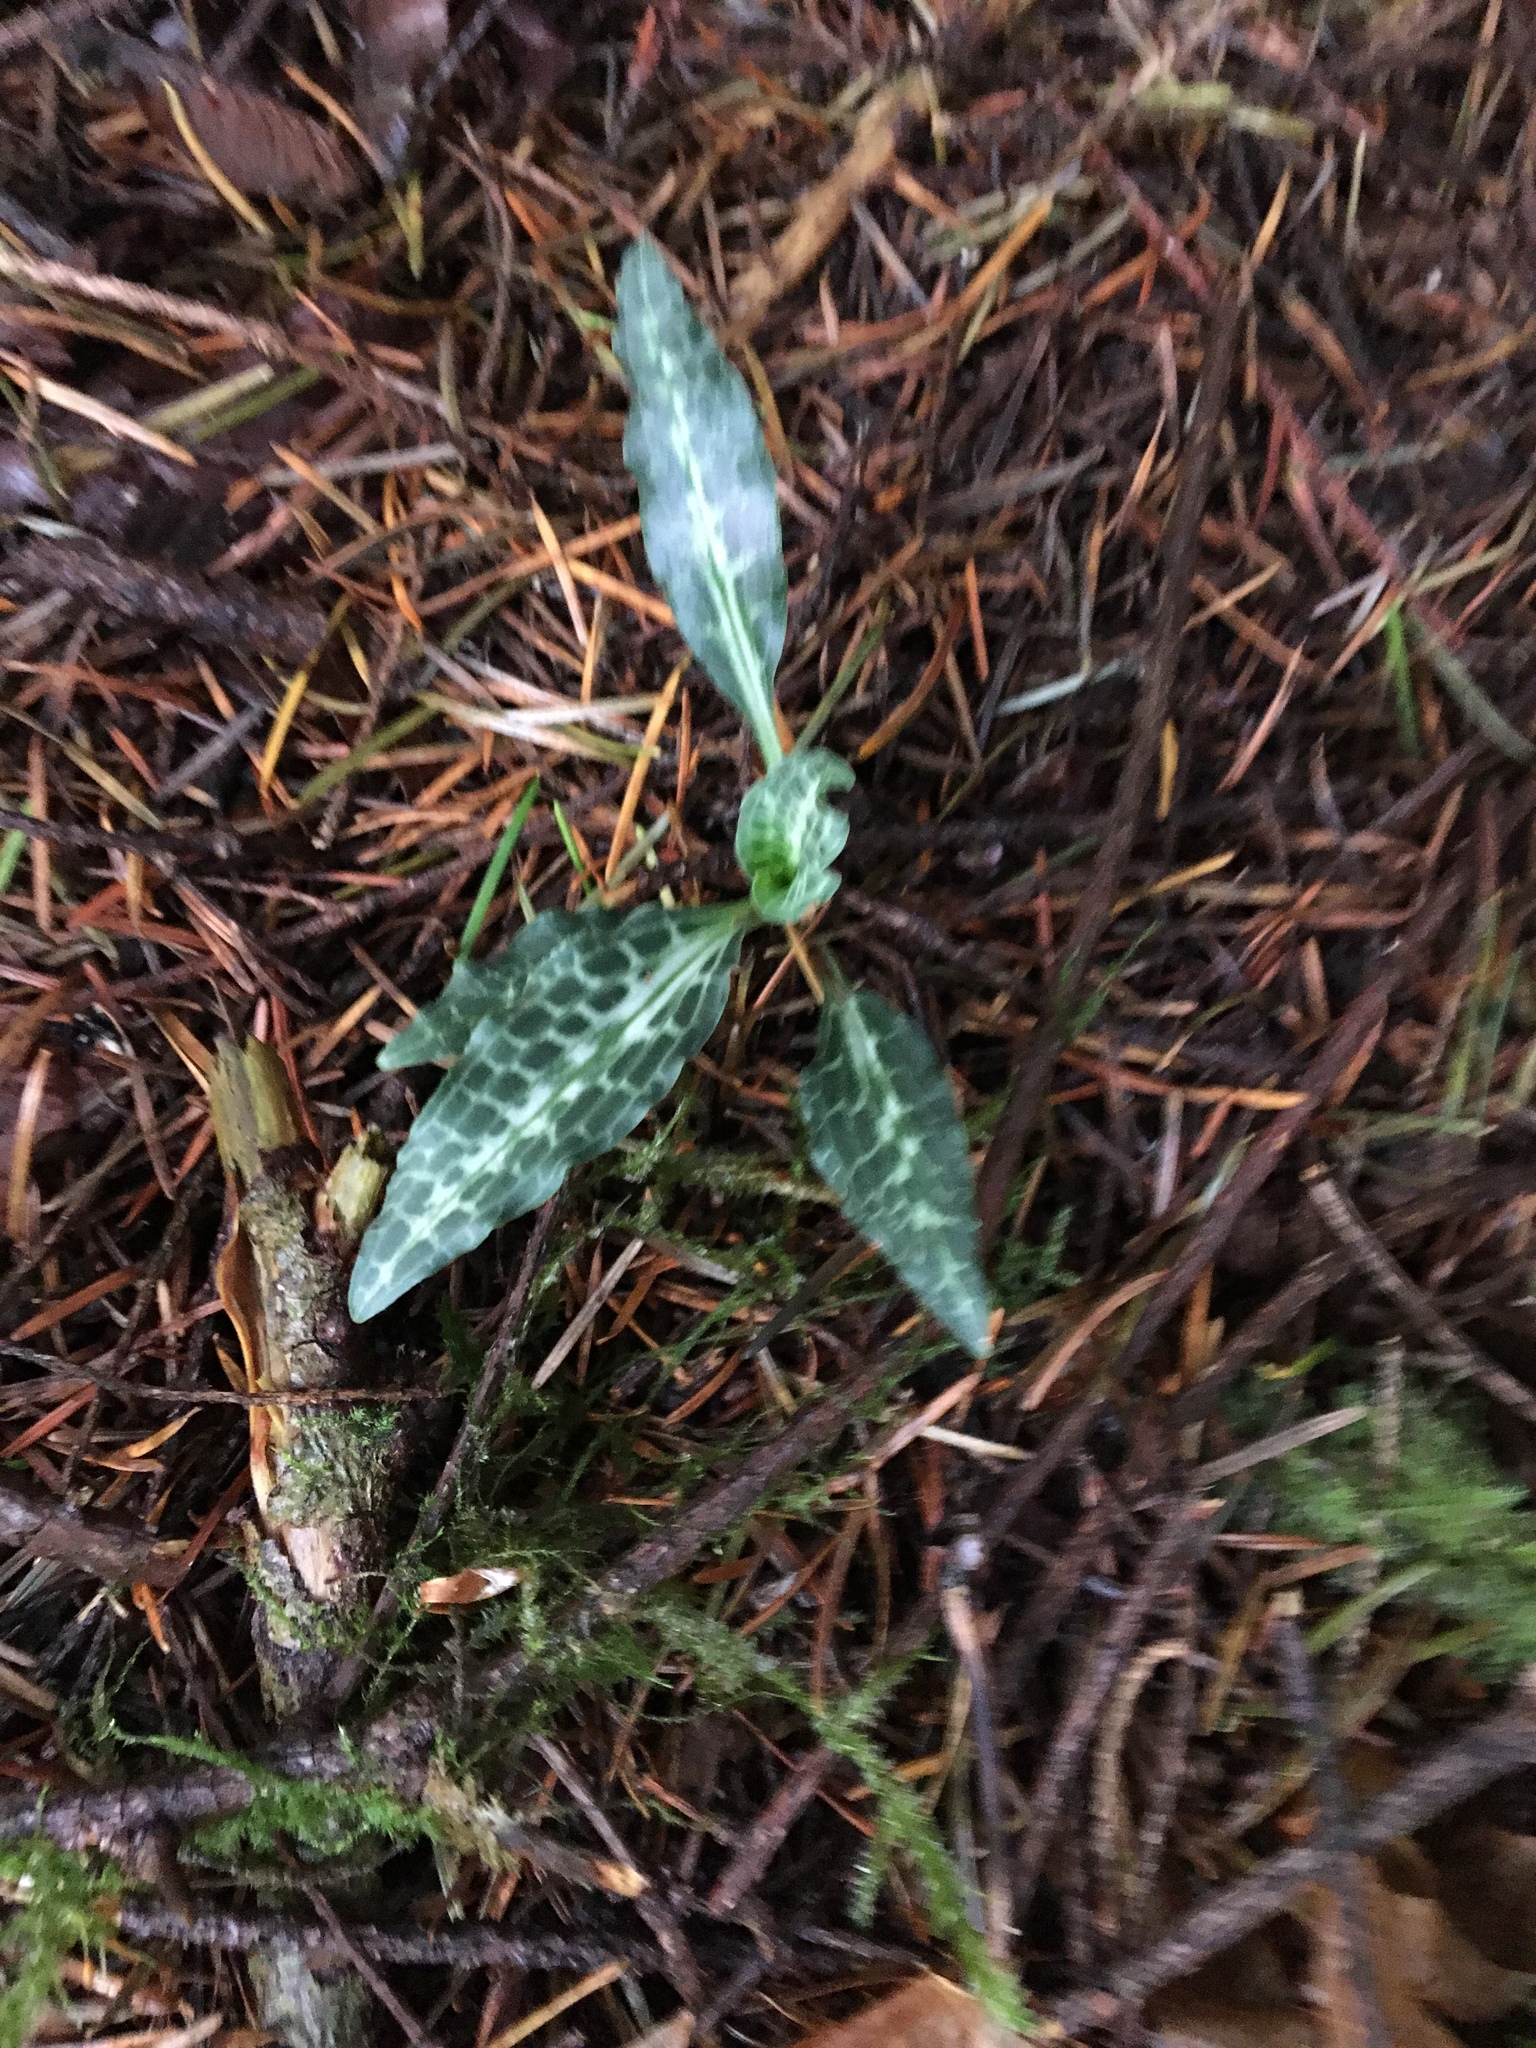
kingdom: Plantae
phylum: Tracheophyta
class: Liliopsida
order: Asparagales
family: Orchidaceae
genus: Goodyera
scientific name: Goodyera oblongifolia
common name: Giant rattlesnake-plantain
